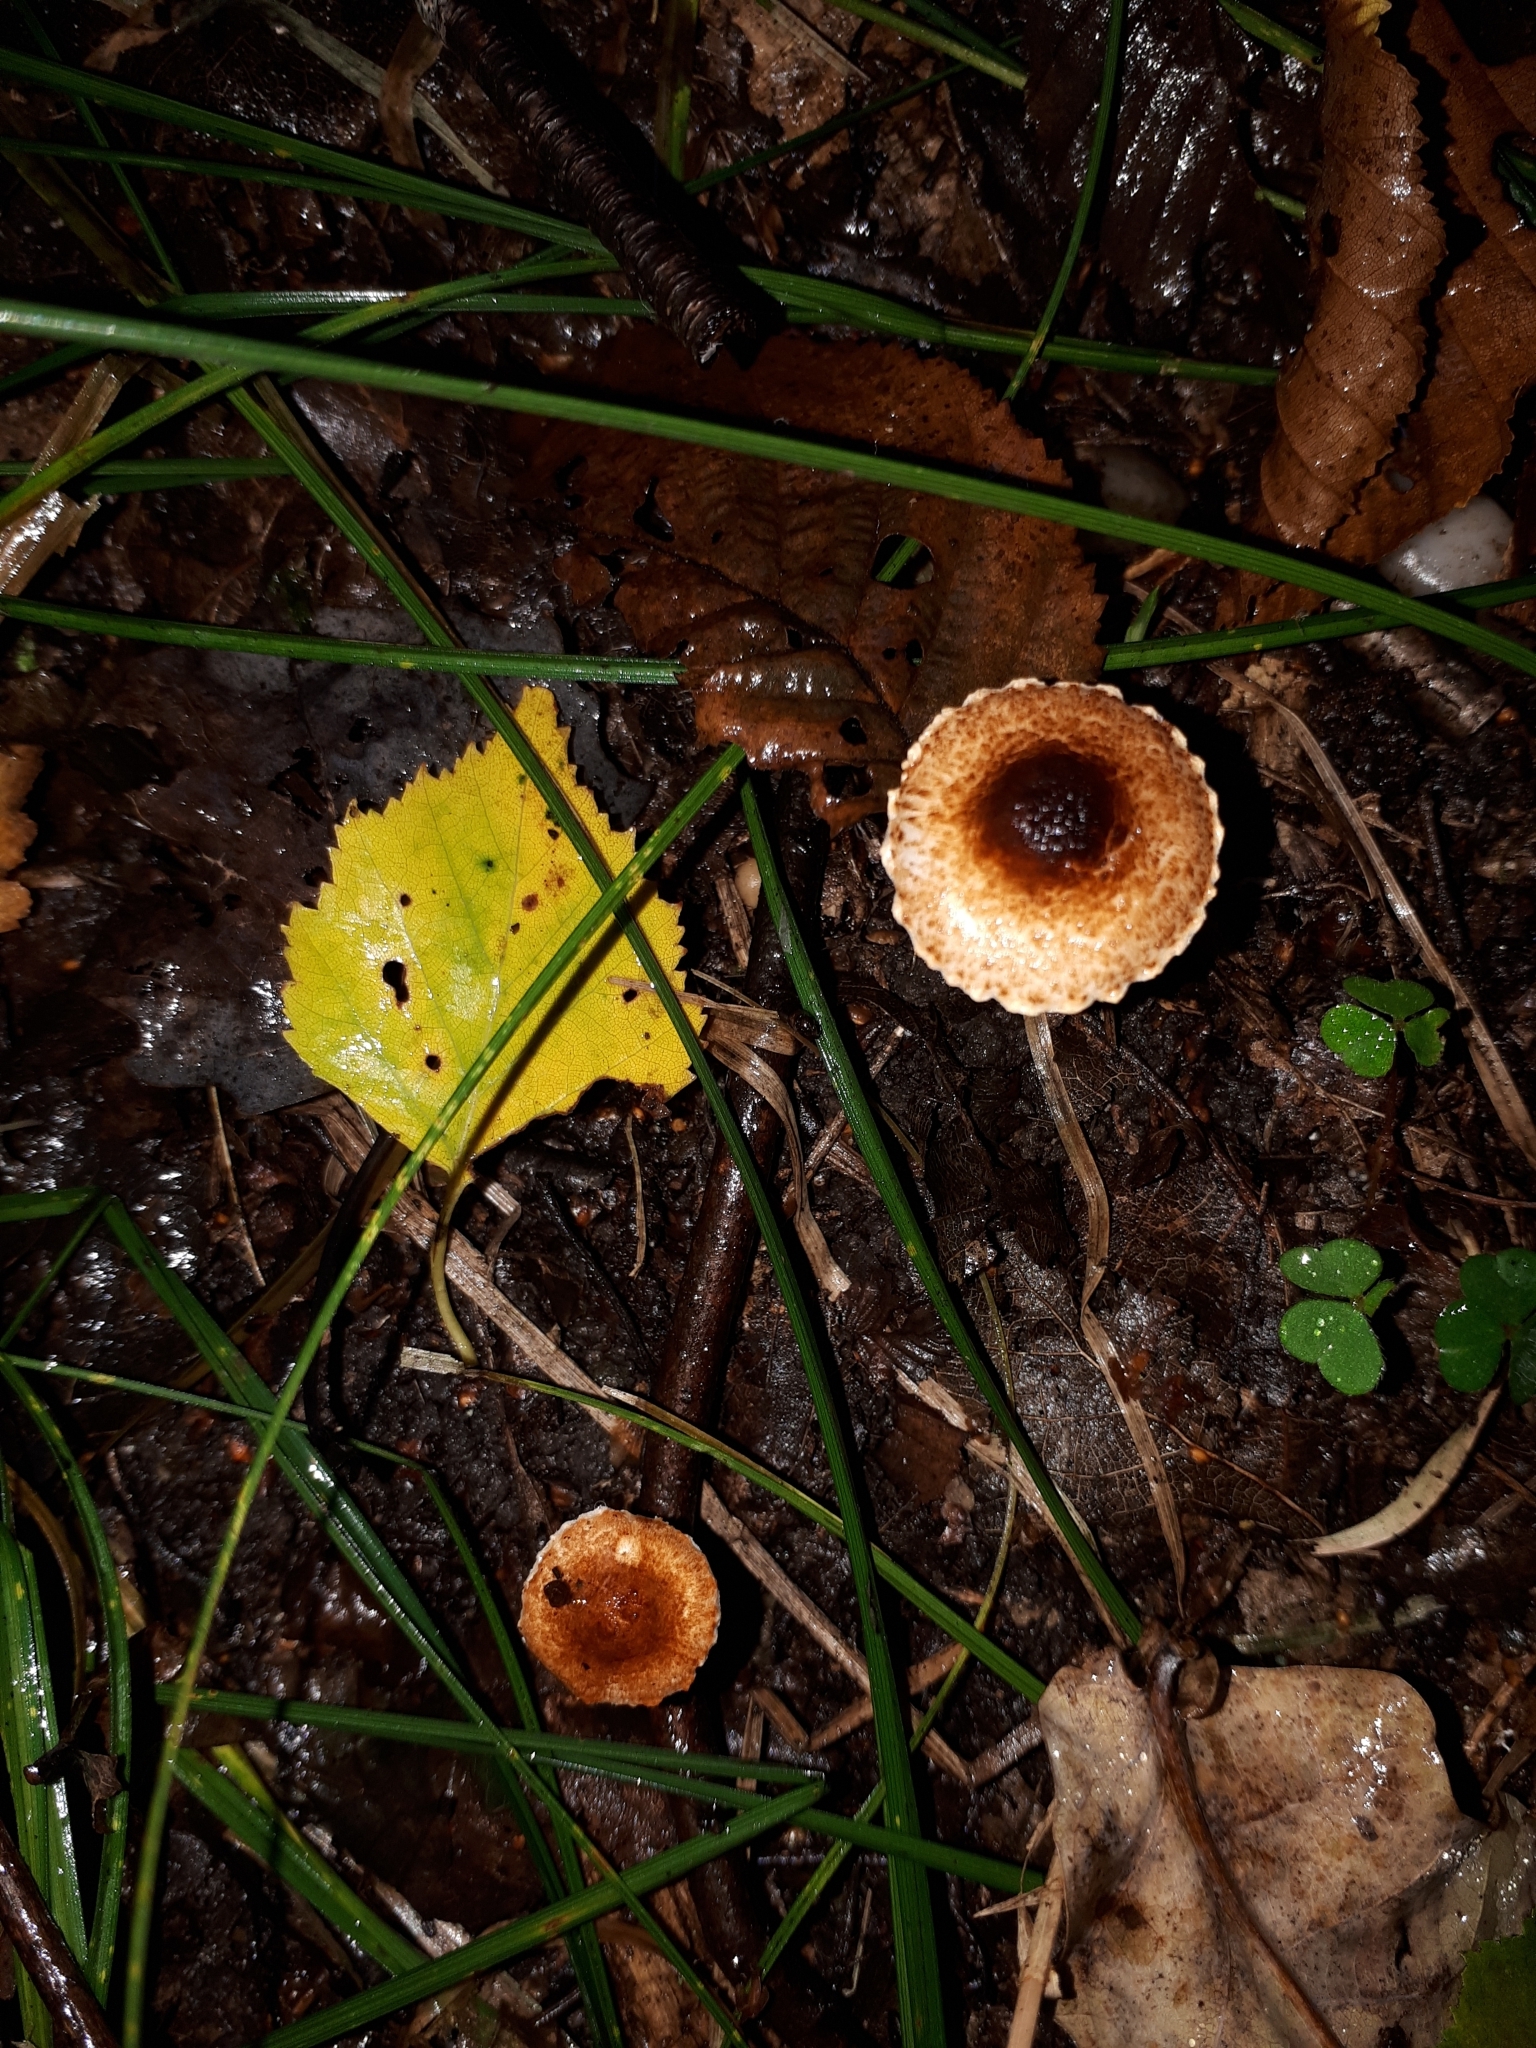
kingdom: Fungi
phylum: Basidiomycota
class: Agaricomycetes
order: Agaricales
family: Agaricaceae
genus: Lepiota
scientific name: Lepiota castanea
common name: Chestnut dapperling
